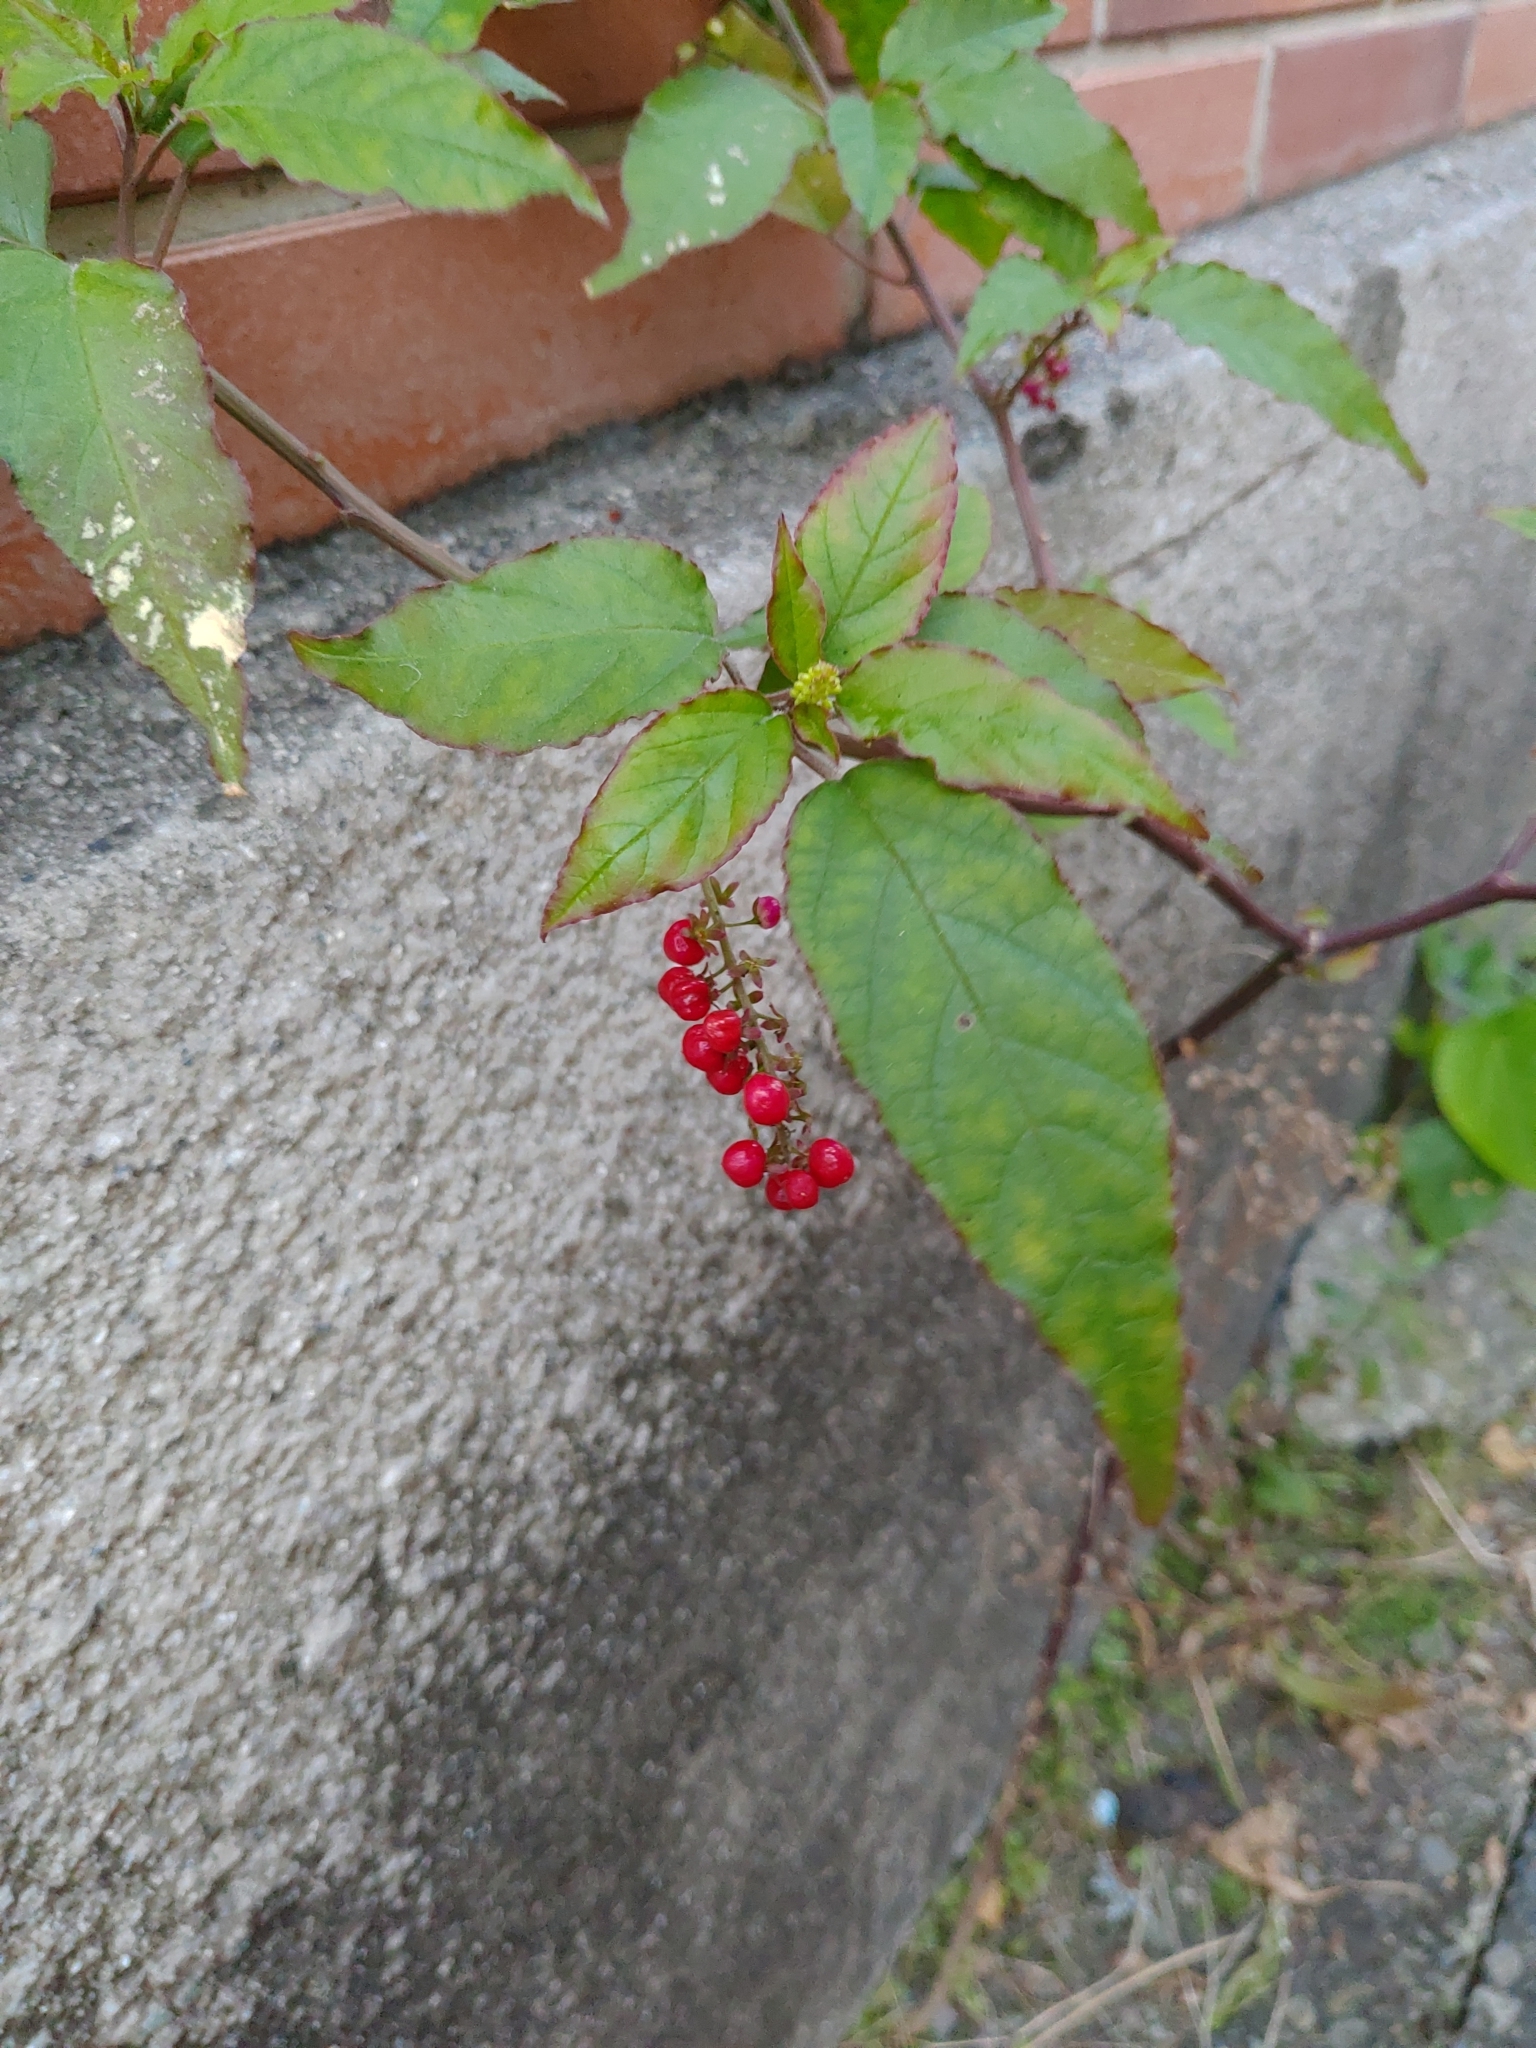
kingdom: Plantae
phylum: Tracheophyta
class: Magnoliopsida
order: Caryophyllales
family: Phytolaccaceae
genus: Rivina
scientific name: Rivina humilis
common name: Rougeplant
